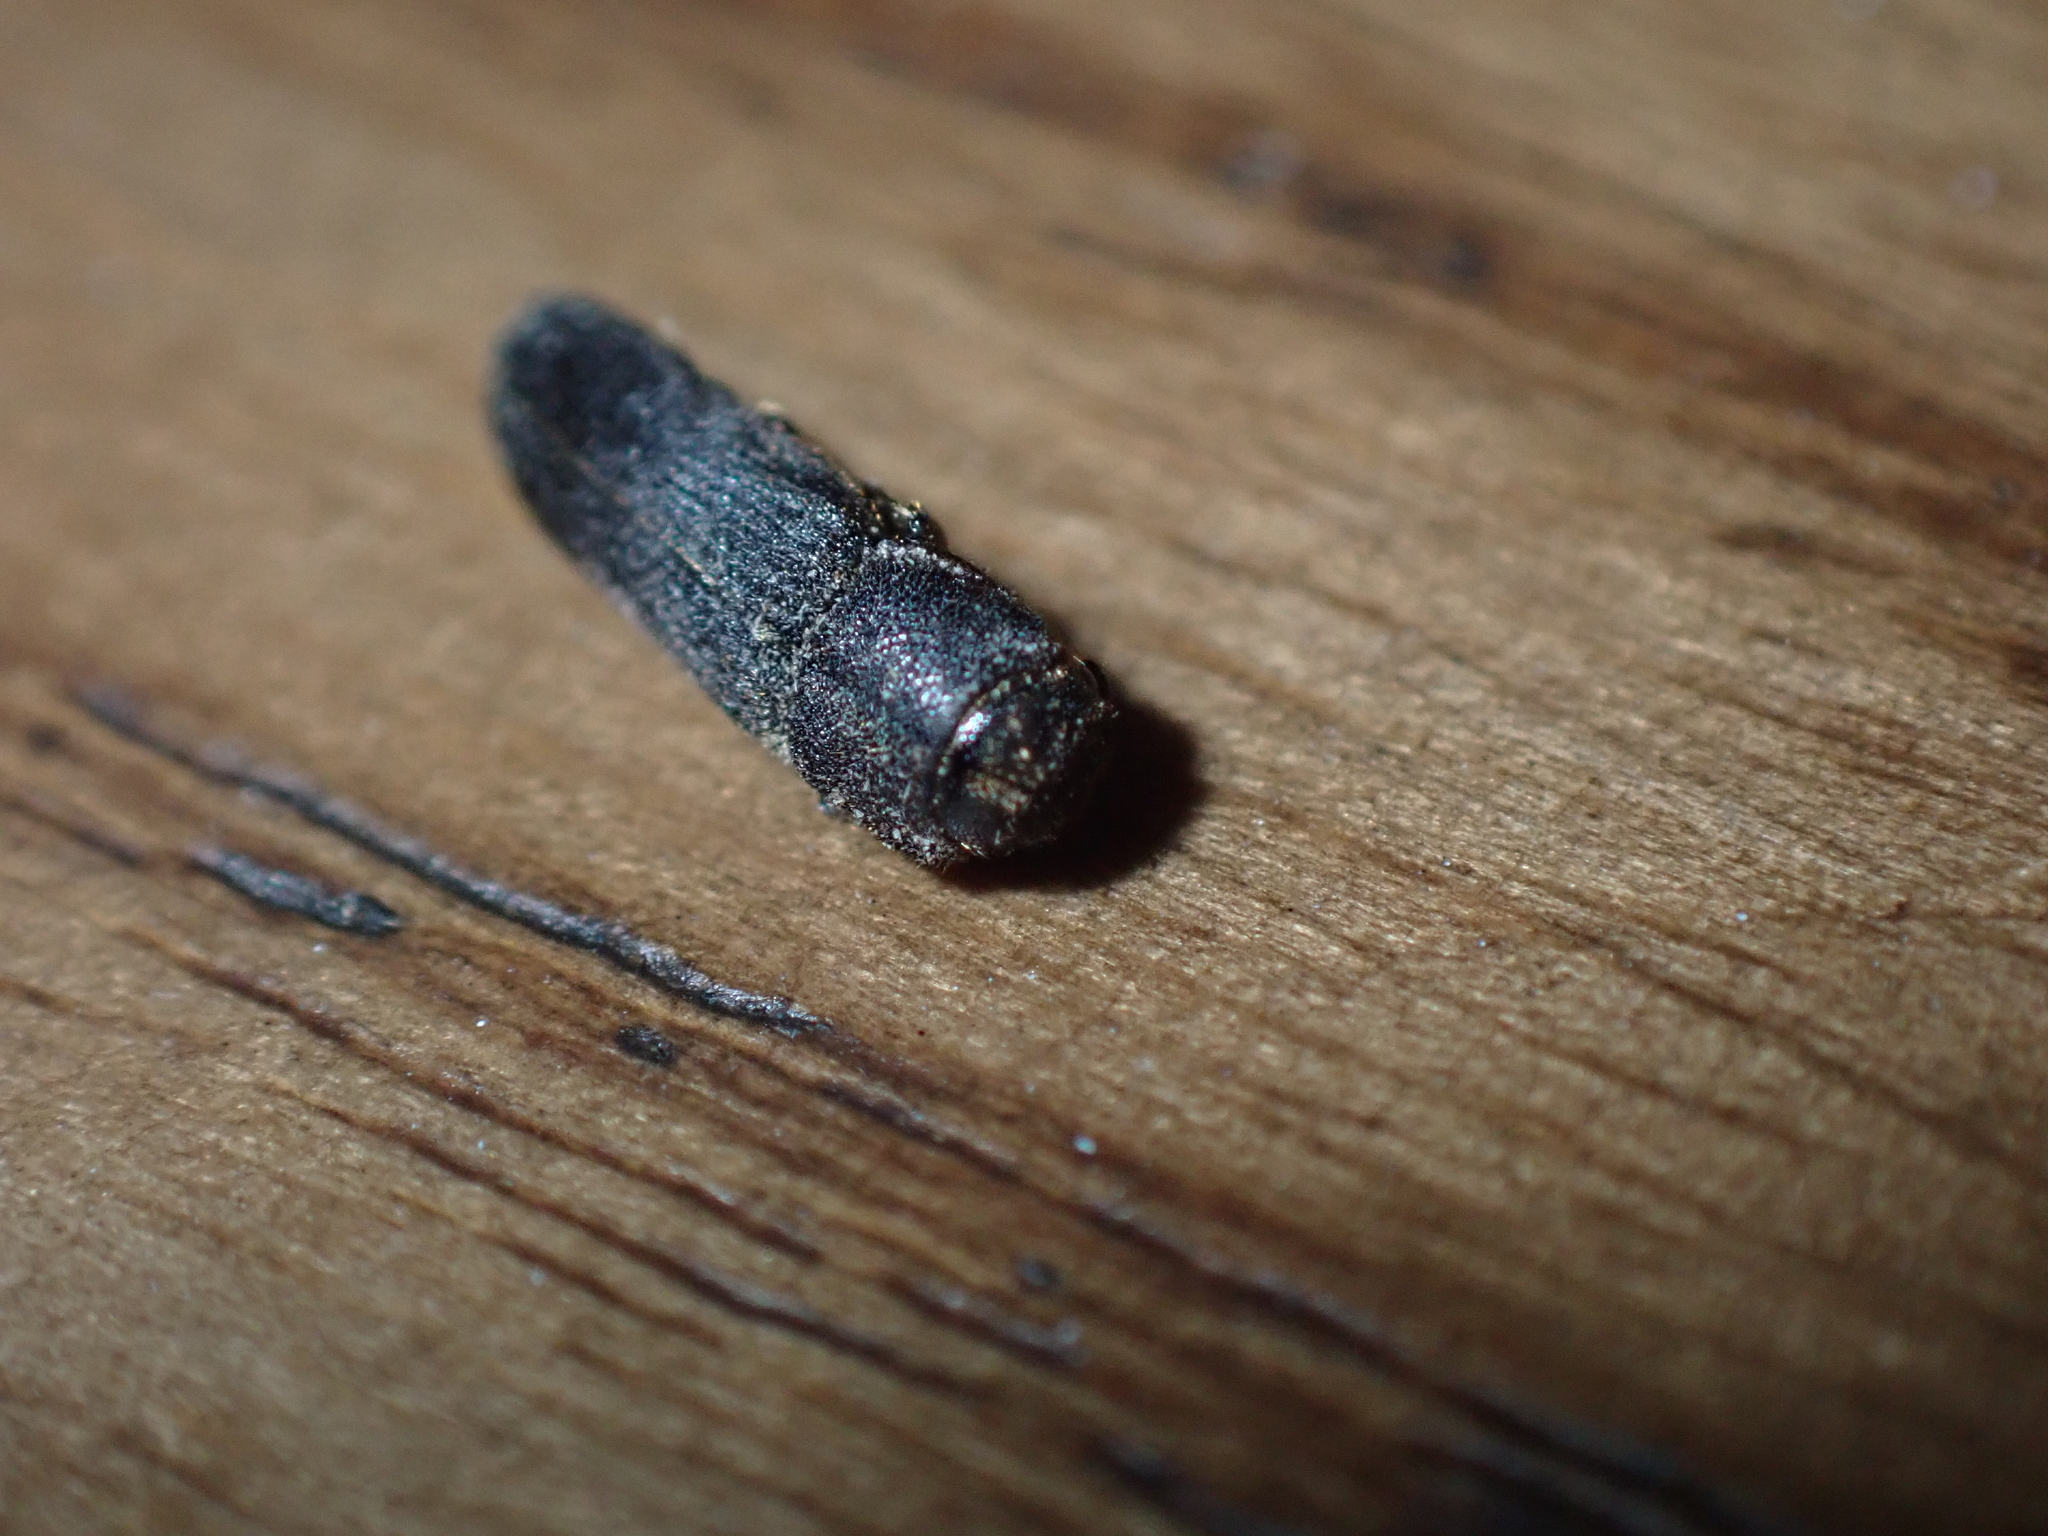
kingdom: Animalia
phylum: Arthropoda
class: Insecta
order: Coleoptera
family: Eucnemidae
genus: Melasis
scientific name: Melasis buprestoides
